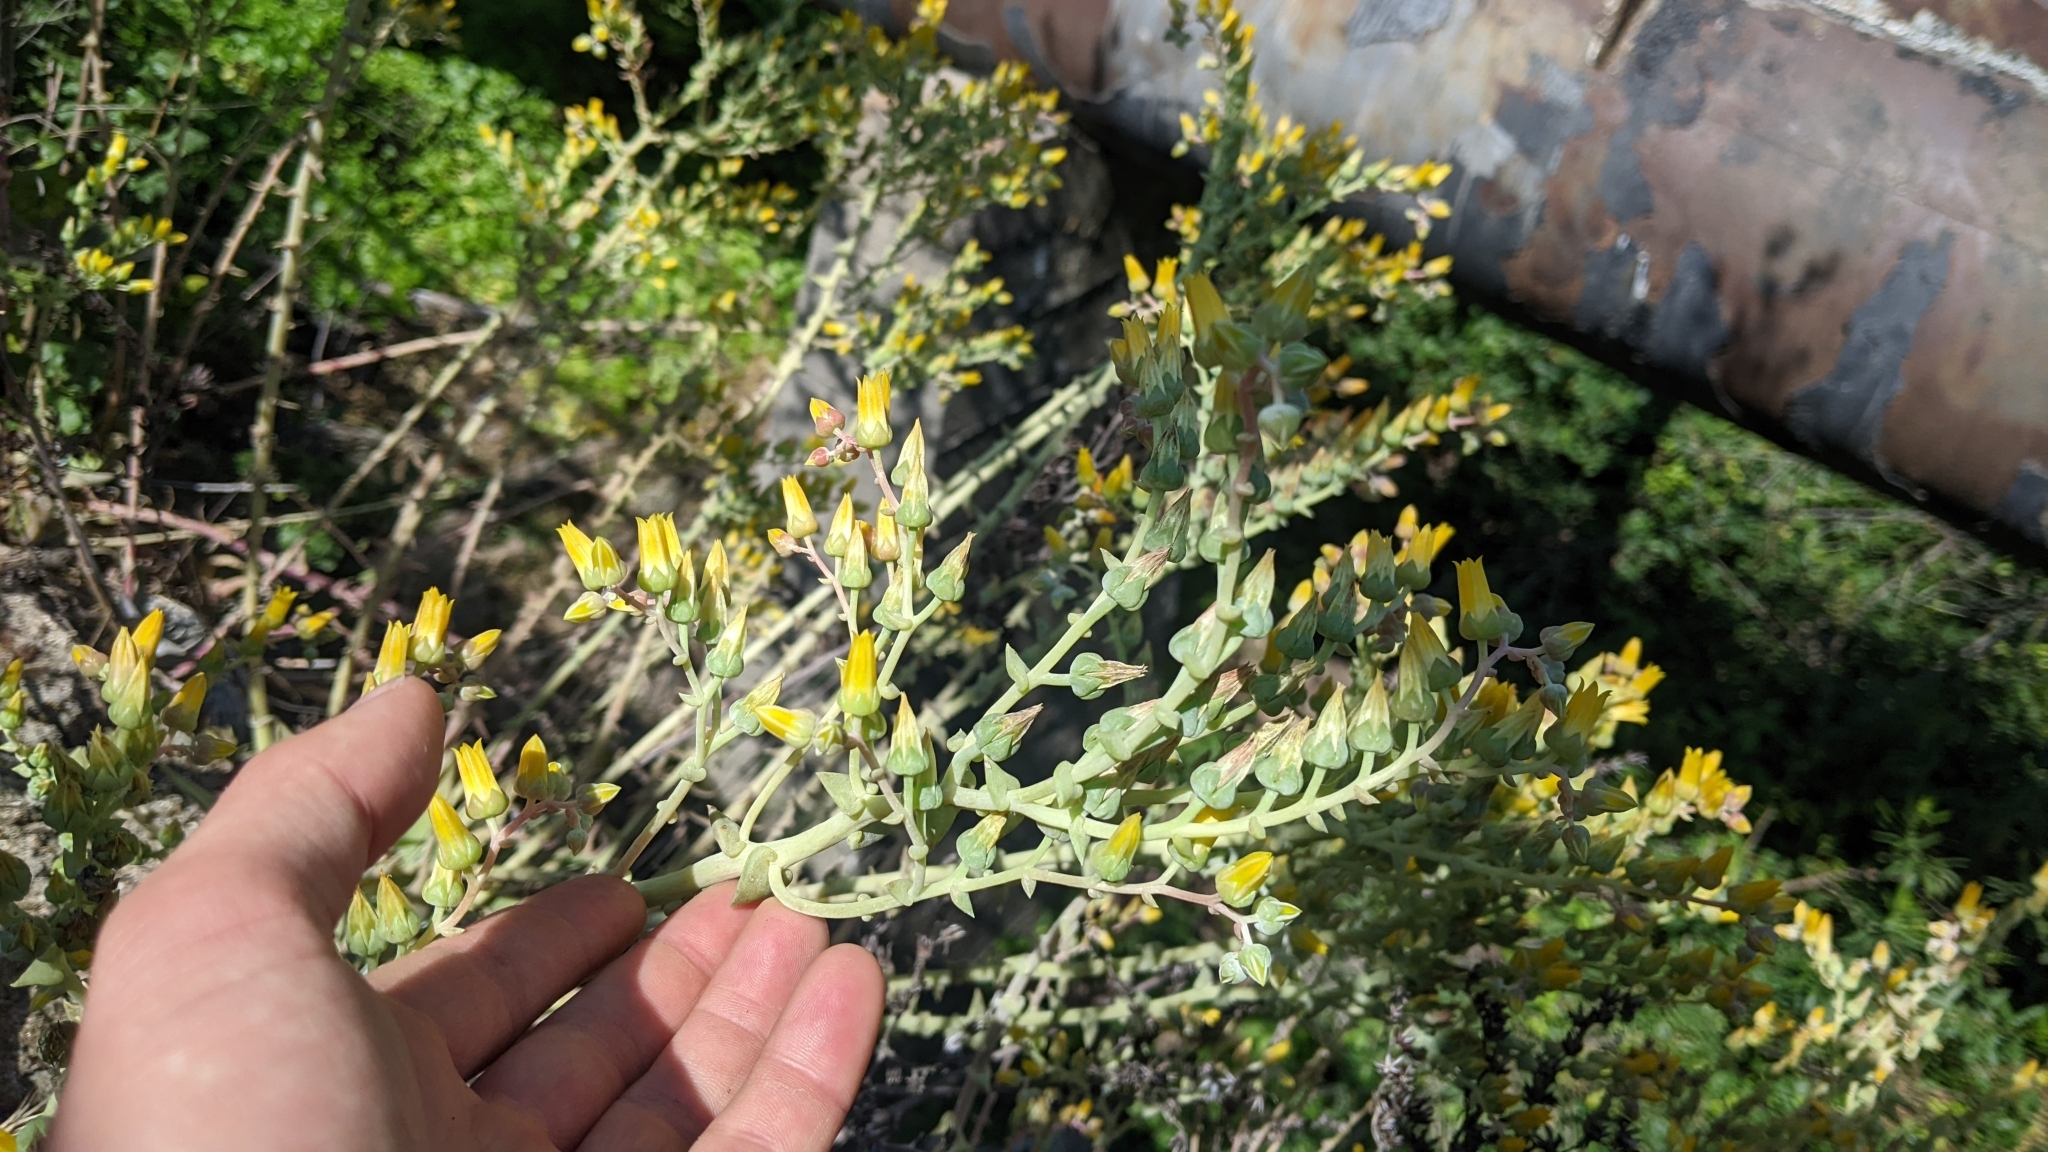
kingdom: Plantae
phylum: Tracheophyta
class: Magnoliopsida
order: Saxifragales
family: Crassulaceae
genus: Dudleya
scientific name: Dudleya lanceolata
